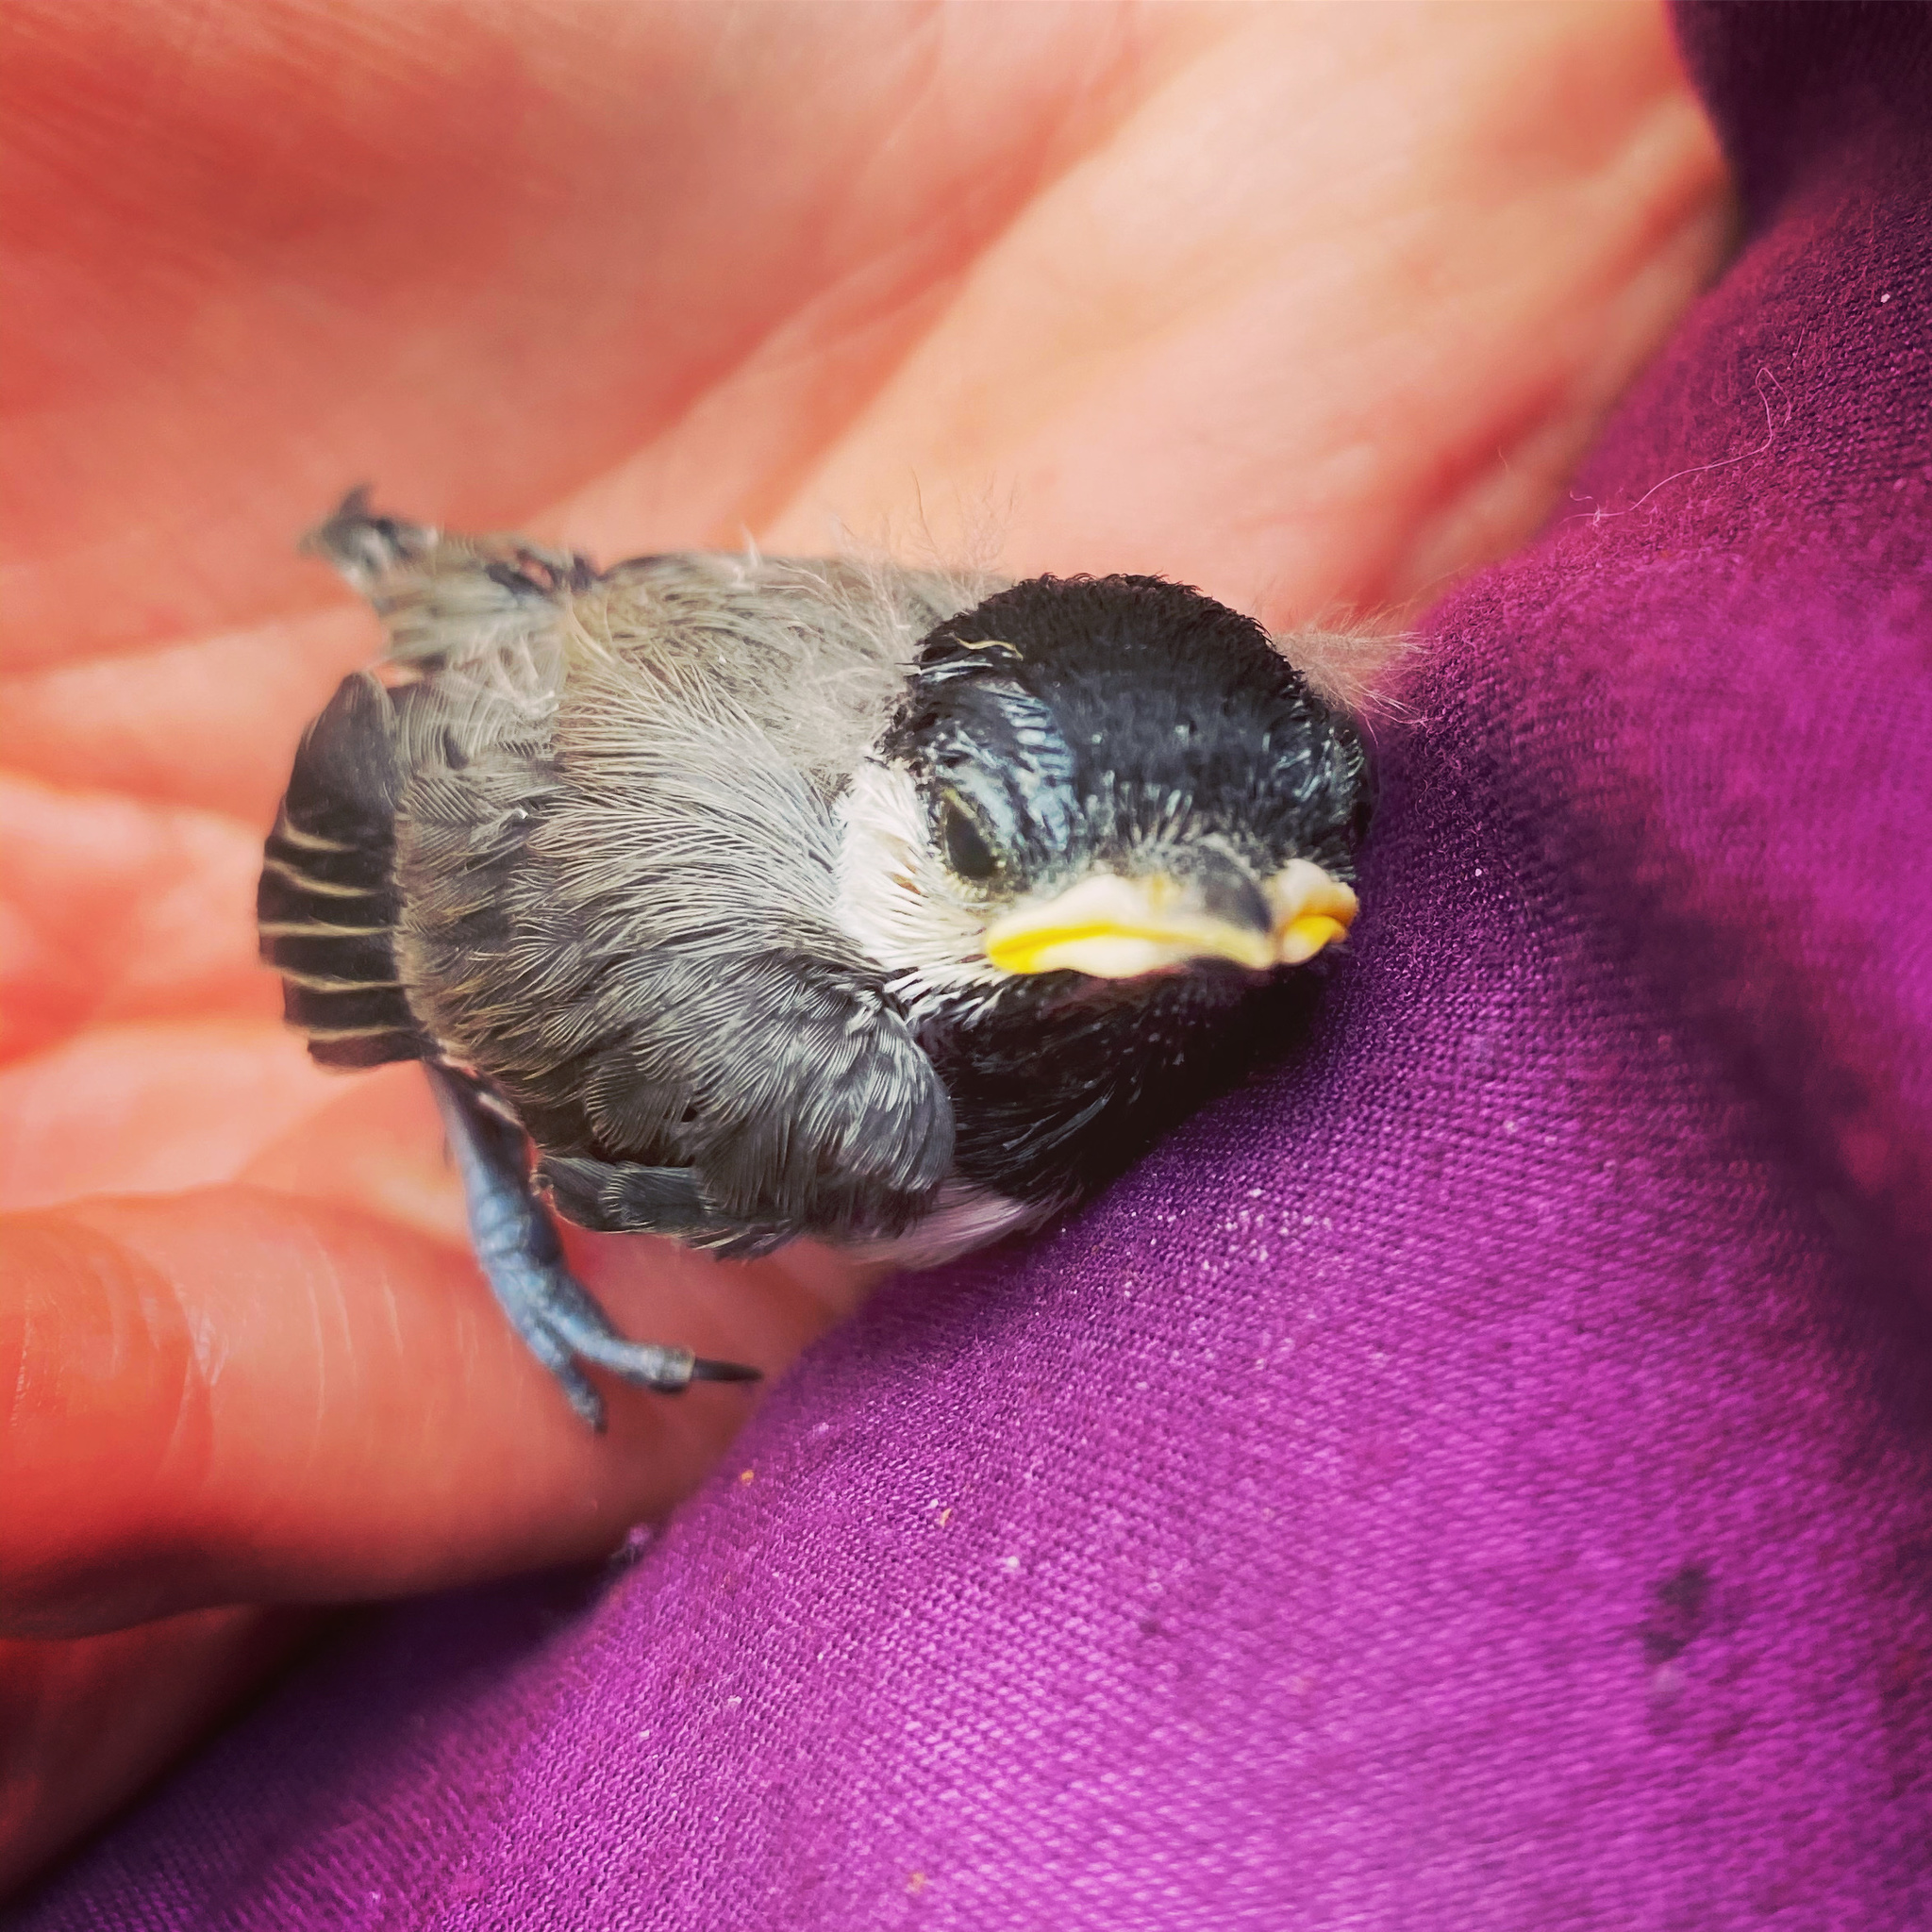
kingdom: Animalia
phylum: Chordata
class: Aves
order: Passeriformes
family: Paridae
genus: Poecile
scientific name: Poecile carolinensis
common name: Carolina chickadee
